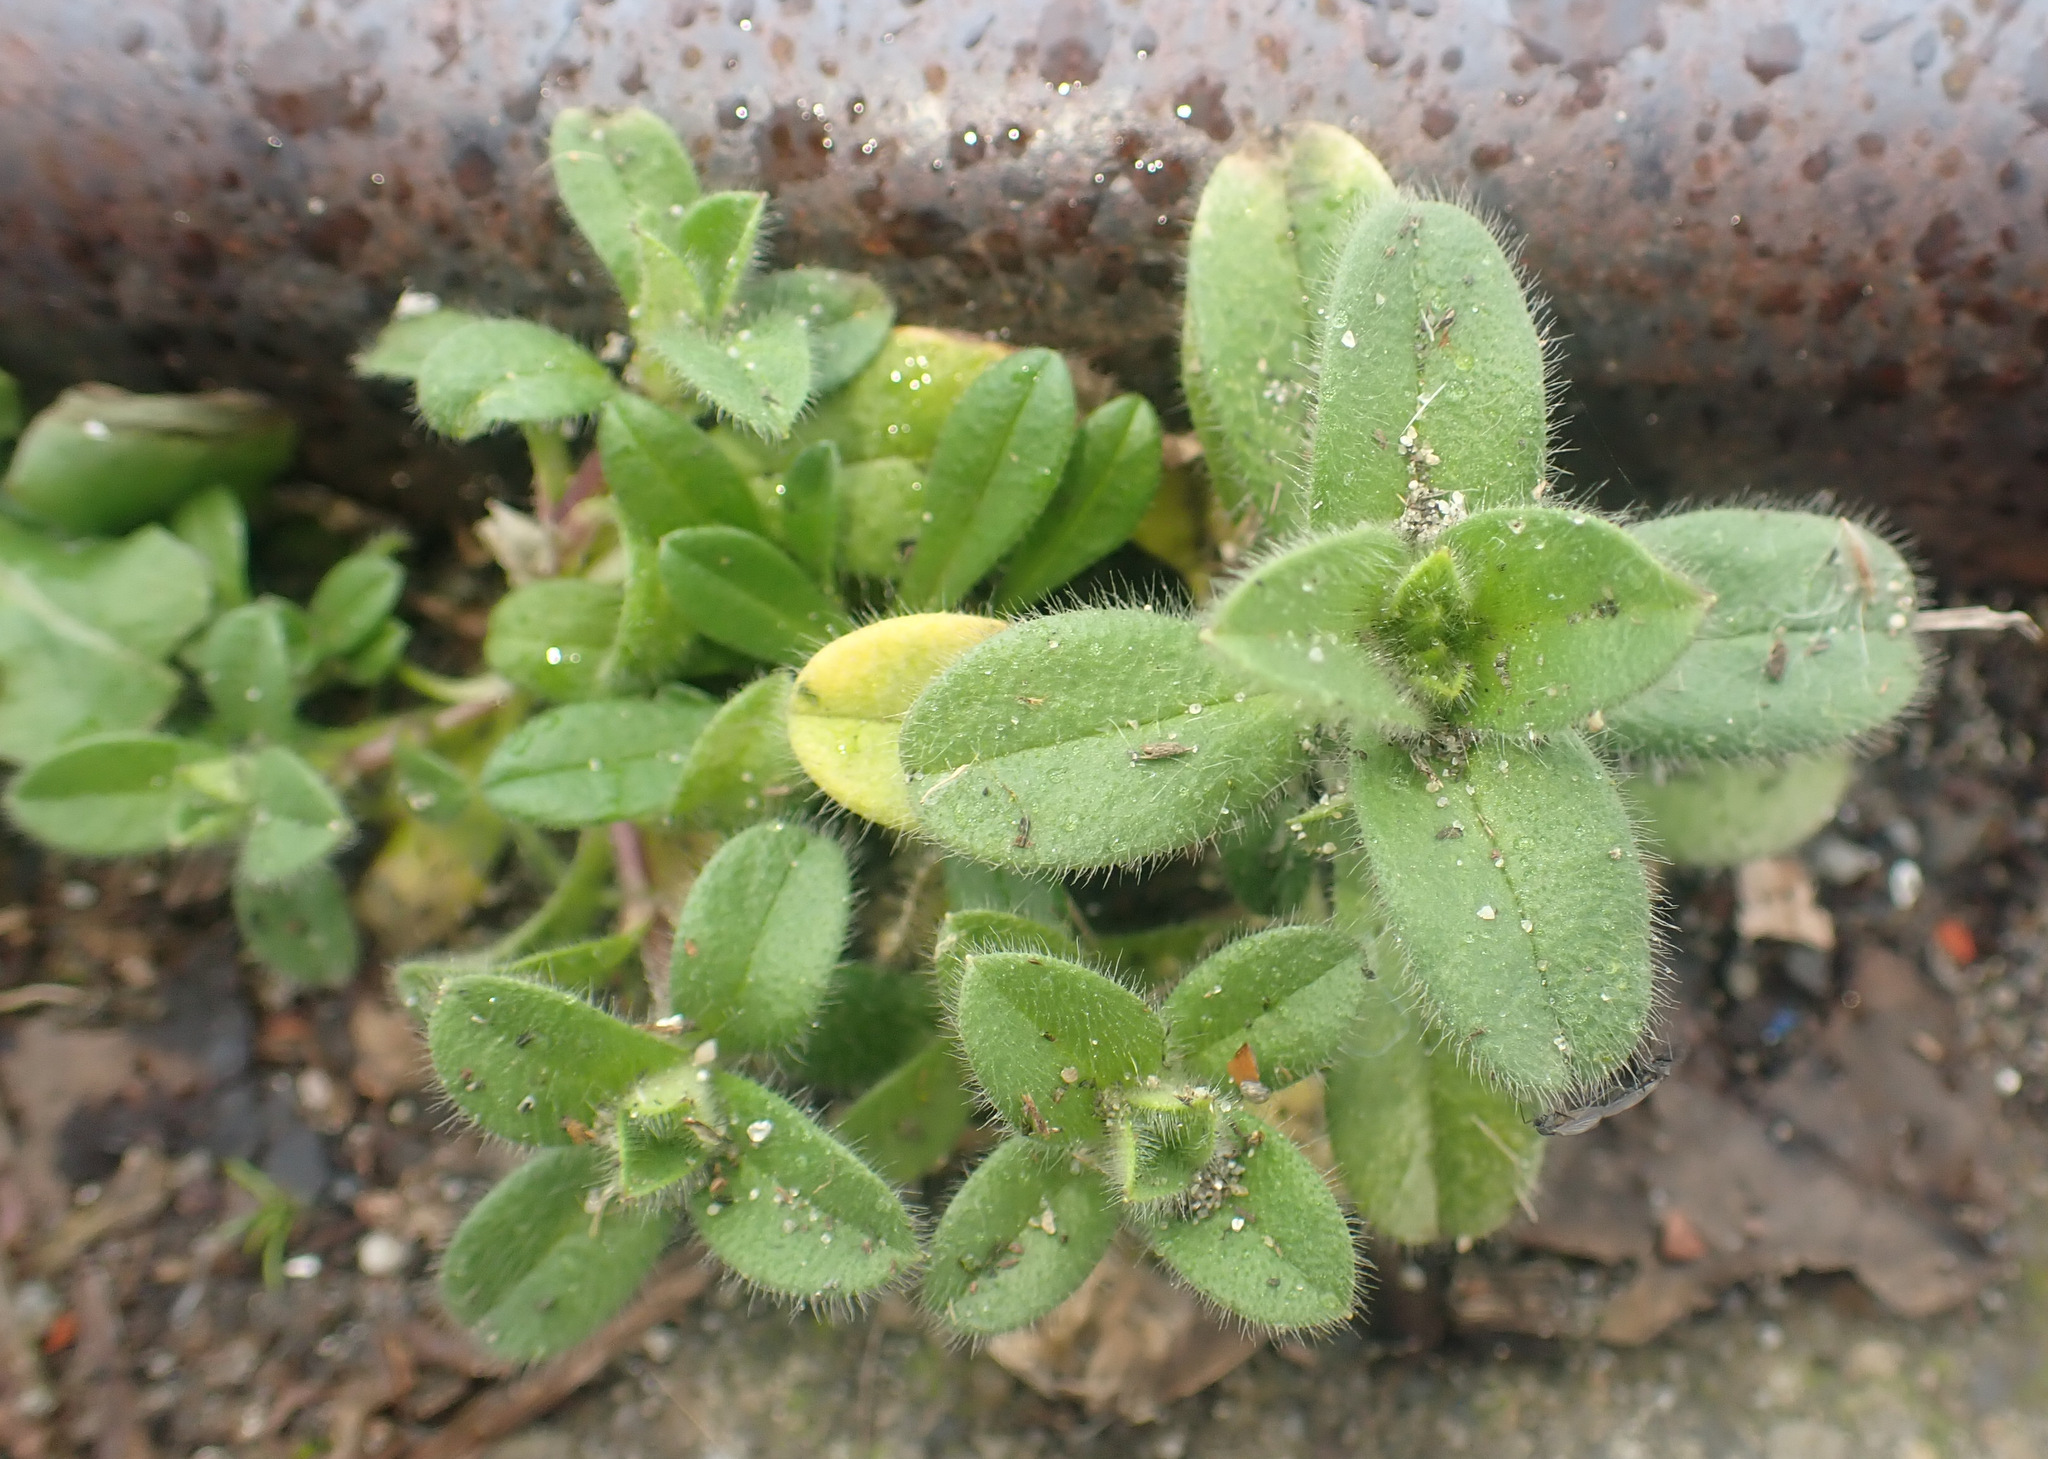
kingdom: Plantae
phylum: Tracheophyta
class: Magnoliopsida
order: Caryophyllales
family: Caryophyllaceae
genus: Cerastium
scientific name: Cerastium glomeratum
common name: Sticky chickweed
